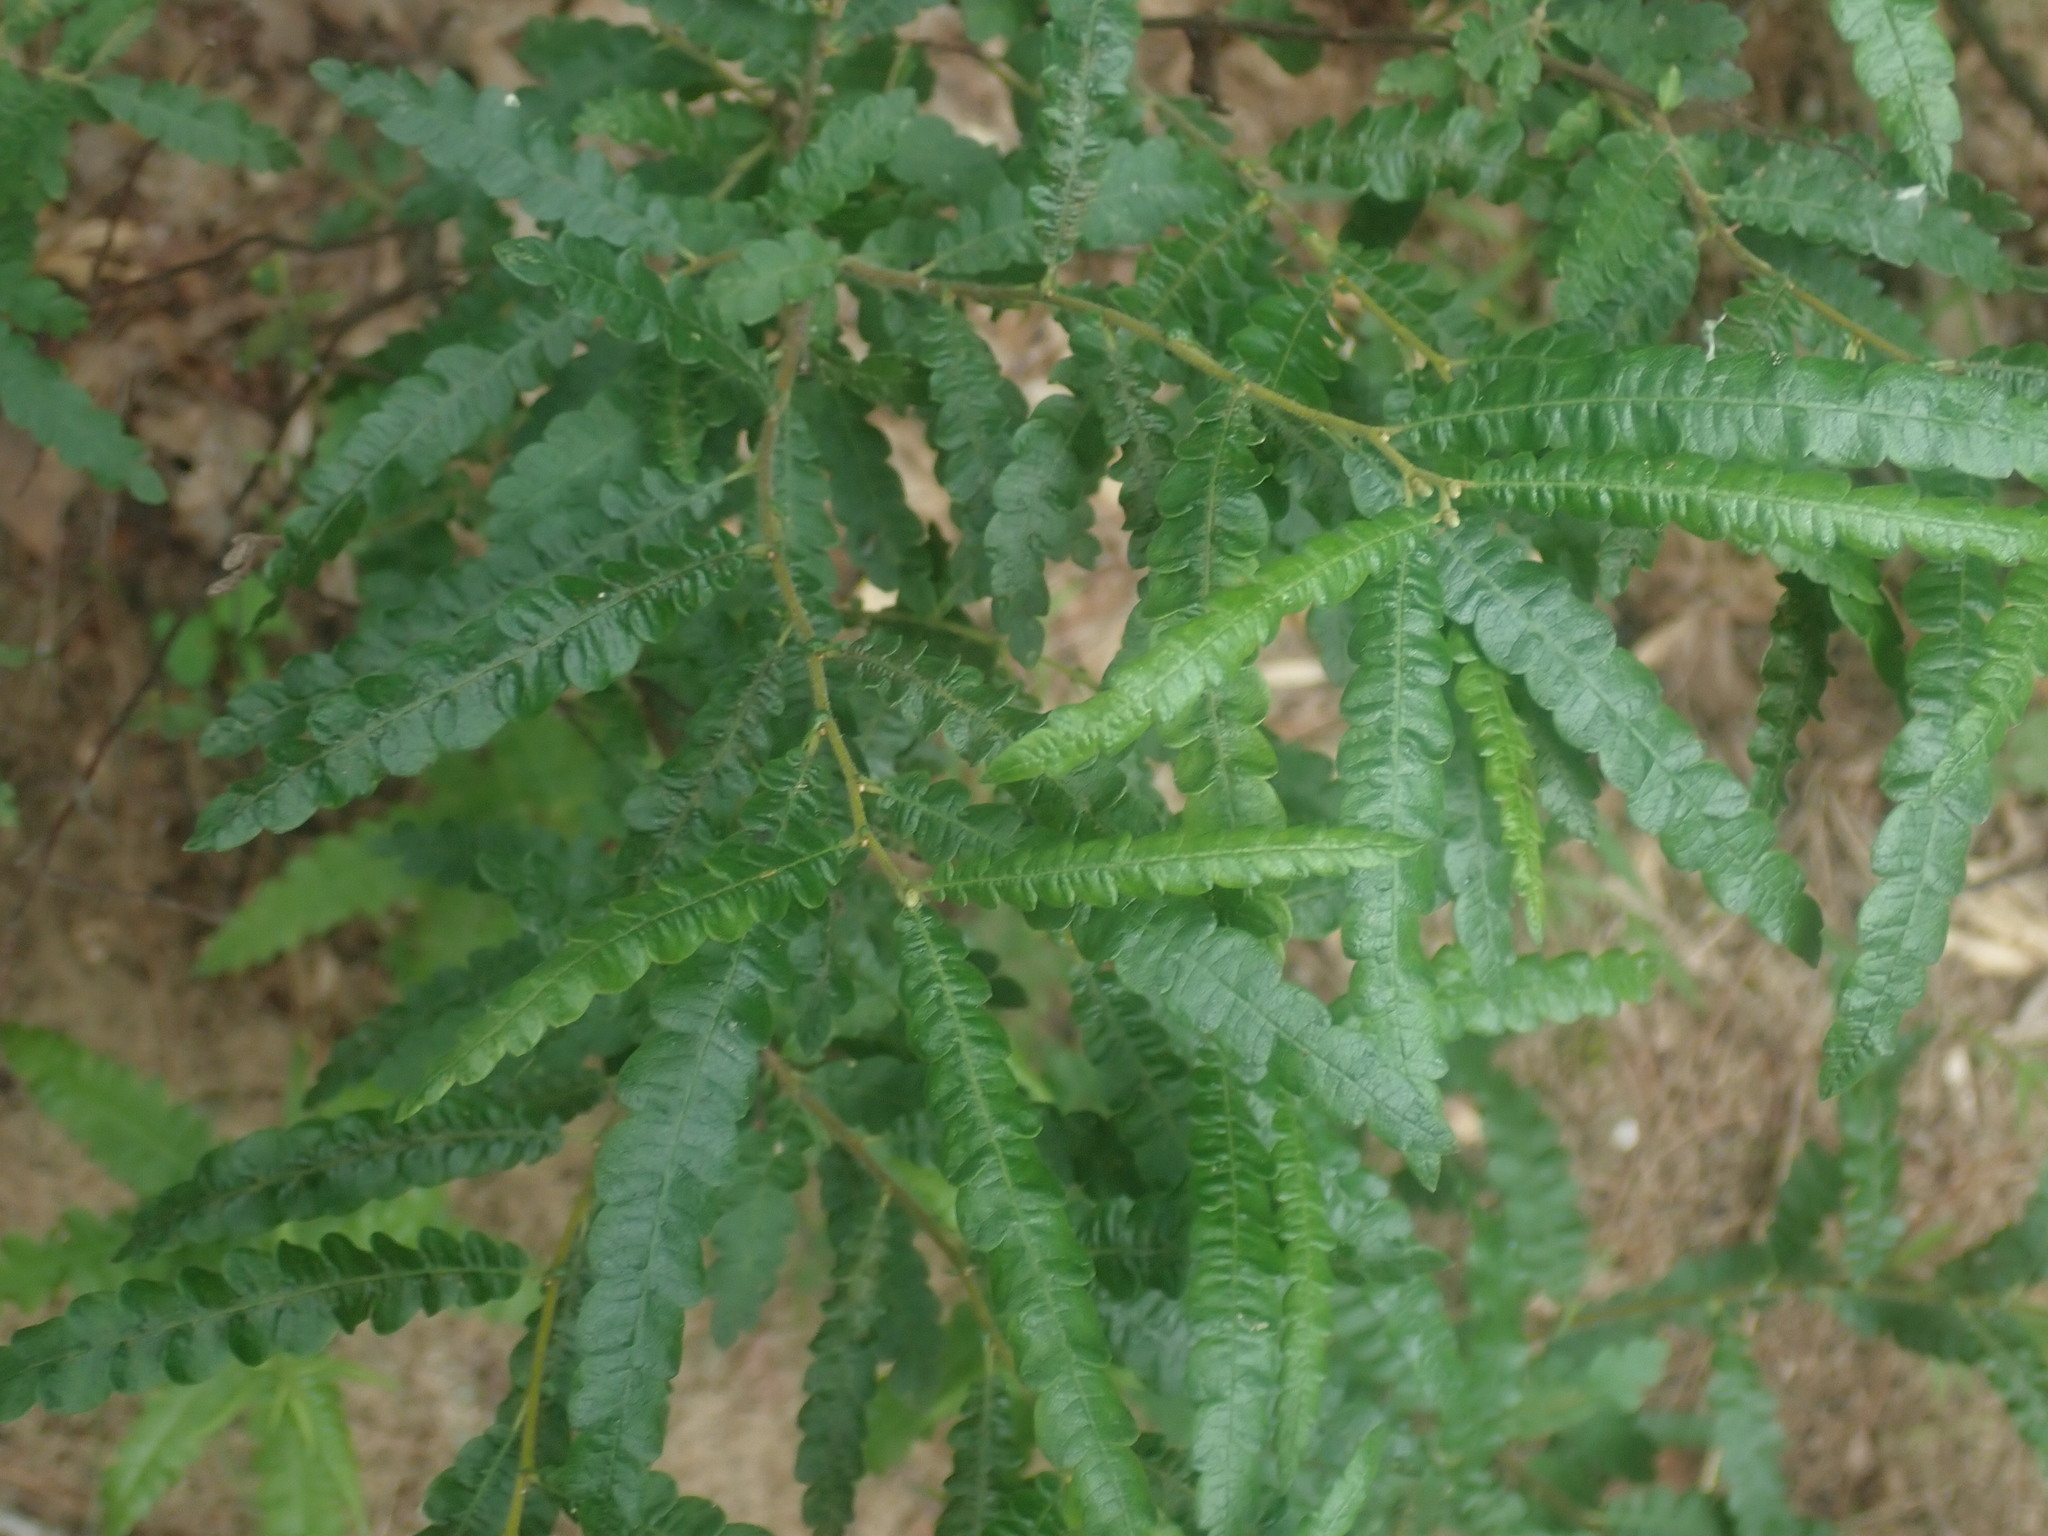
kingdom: Plantae
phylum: Tracheophyta
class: Magnoliopsida
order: Fagales
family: Myricaceae
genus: Comptonia
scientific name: Comptonia peregrina
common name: Sweet-fern
